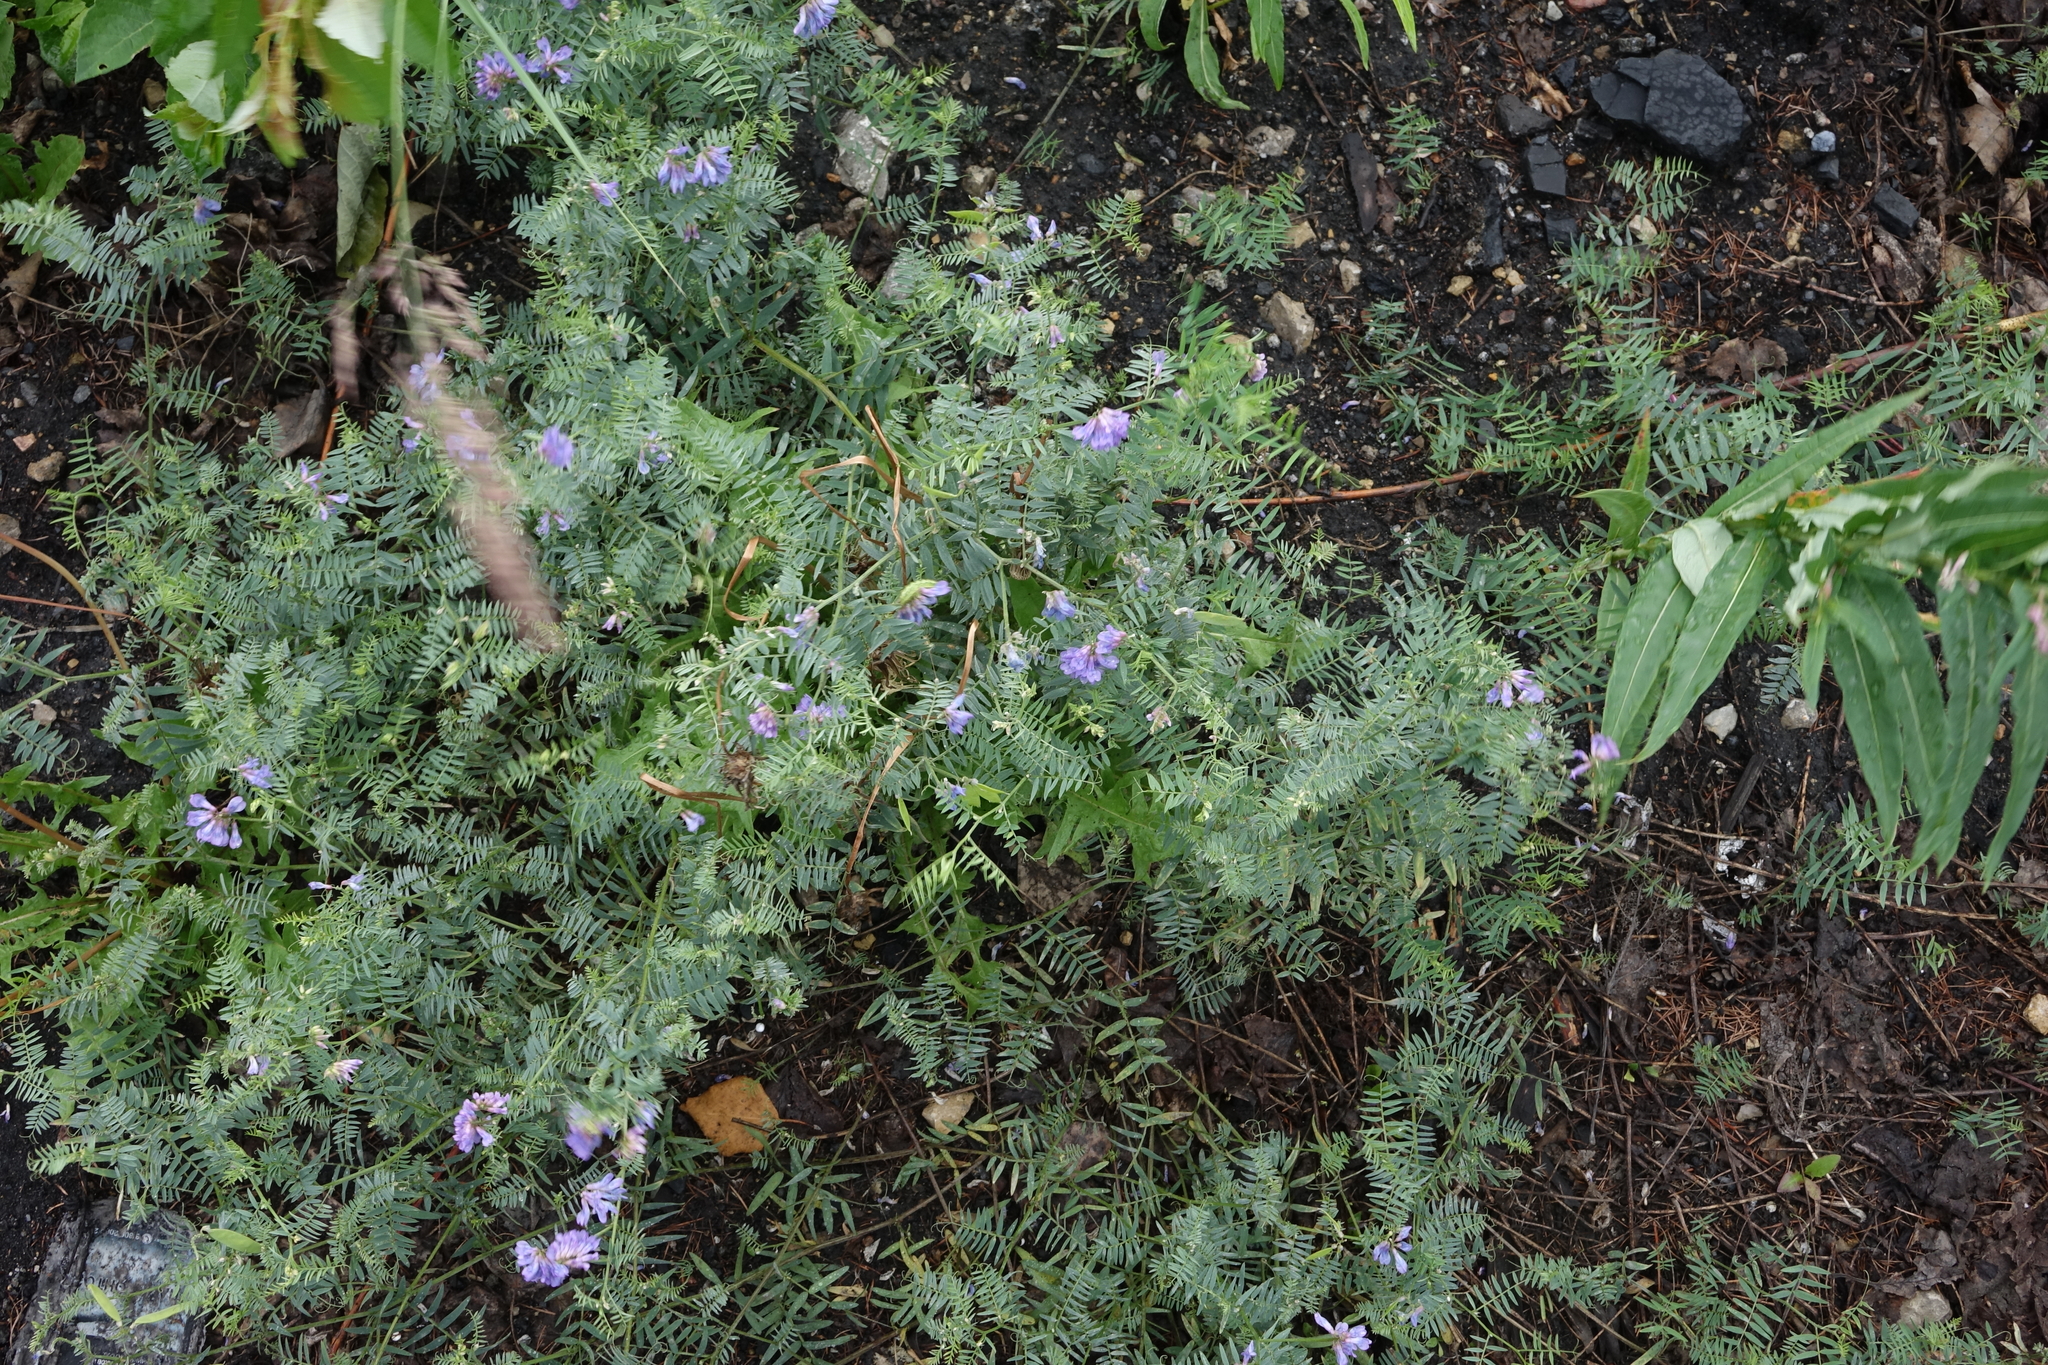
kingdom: Plantae
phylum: Tracheophyta
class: Magnoliopsida
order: Fabales
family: Fabaceae
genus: Vicia
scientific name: Vicia cracca
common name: Bird vetch
